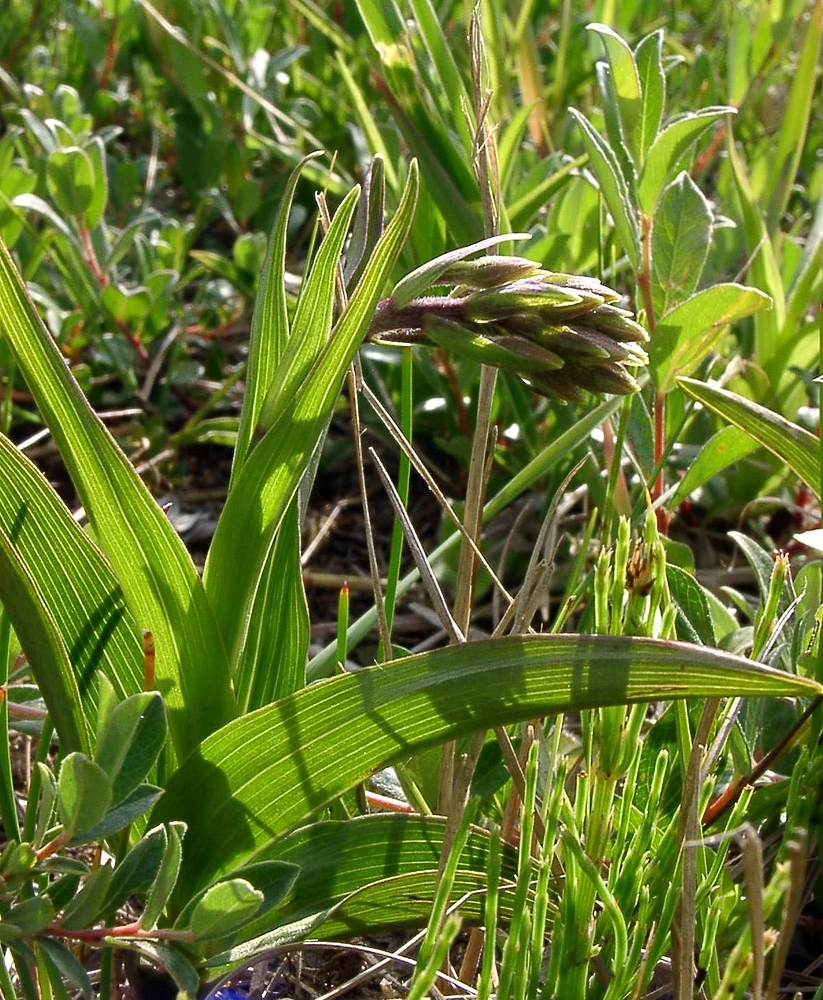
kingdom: Plantae
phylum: Tracheophyta
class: Liliopsida
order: Asparagales
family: Orchidaceae
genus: Epipactis
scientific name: Epipactis palustris
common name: Marsh helleborine
